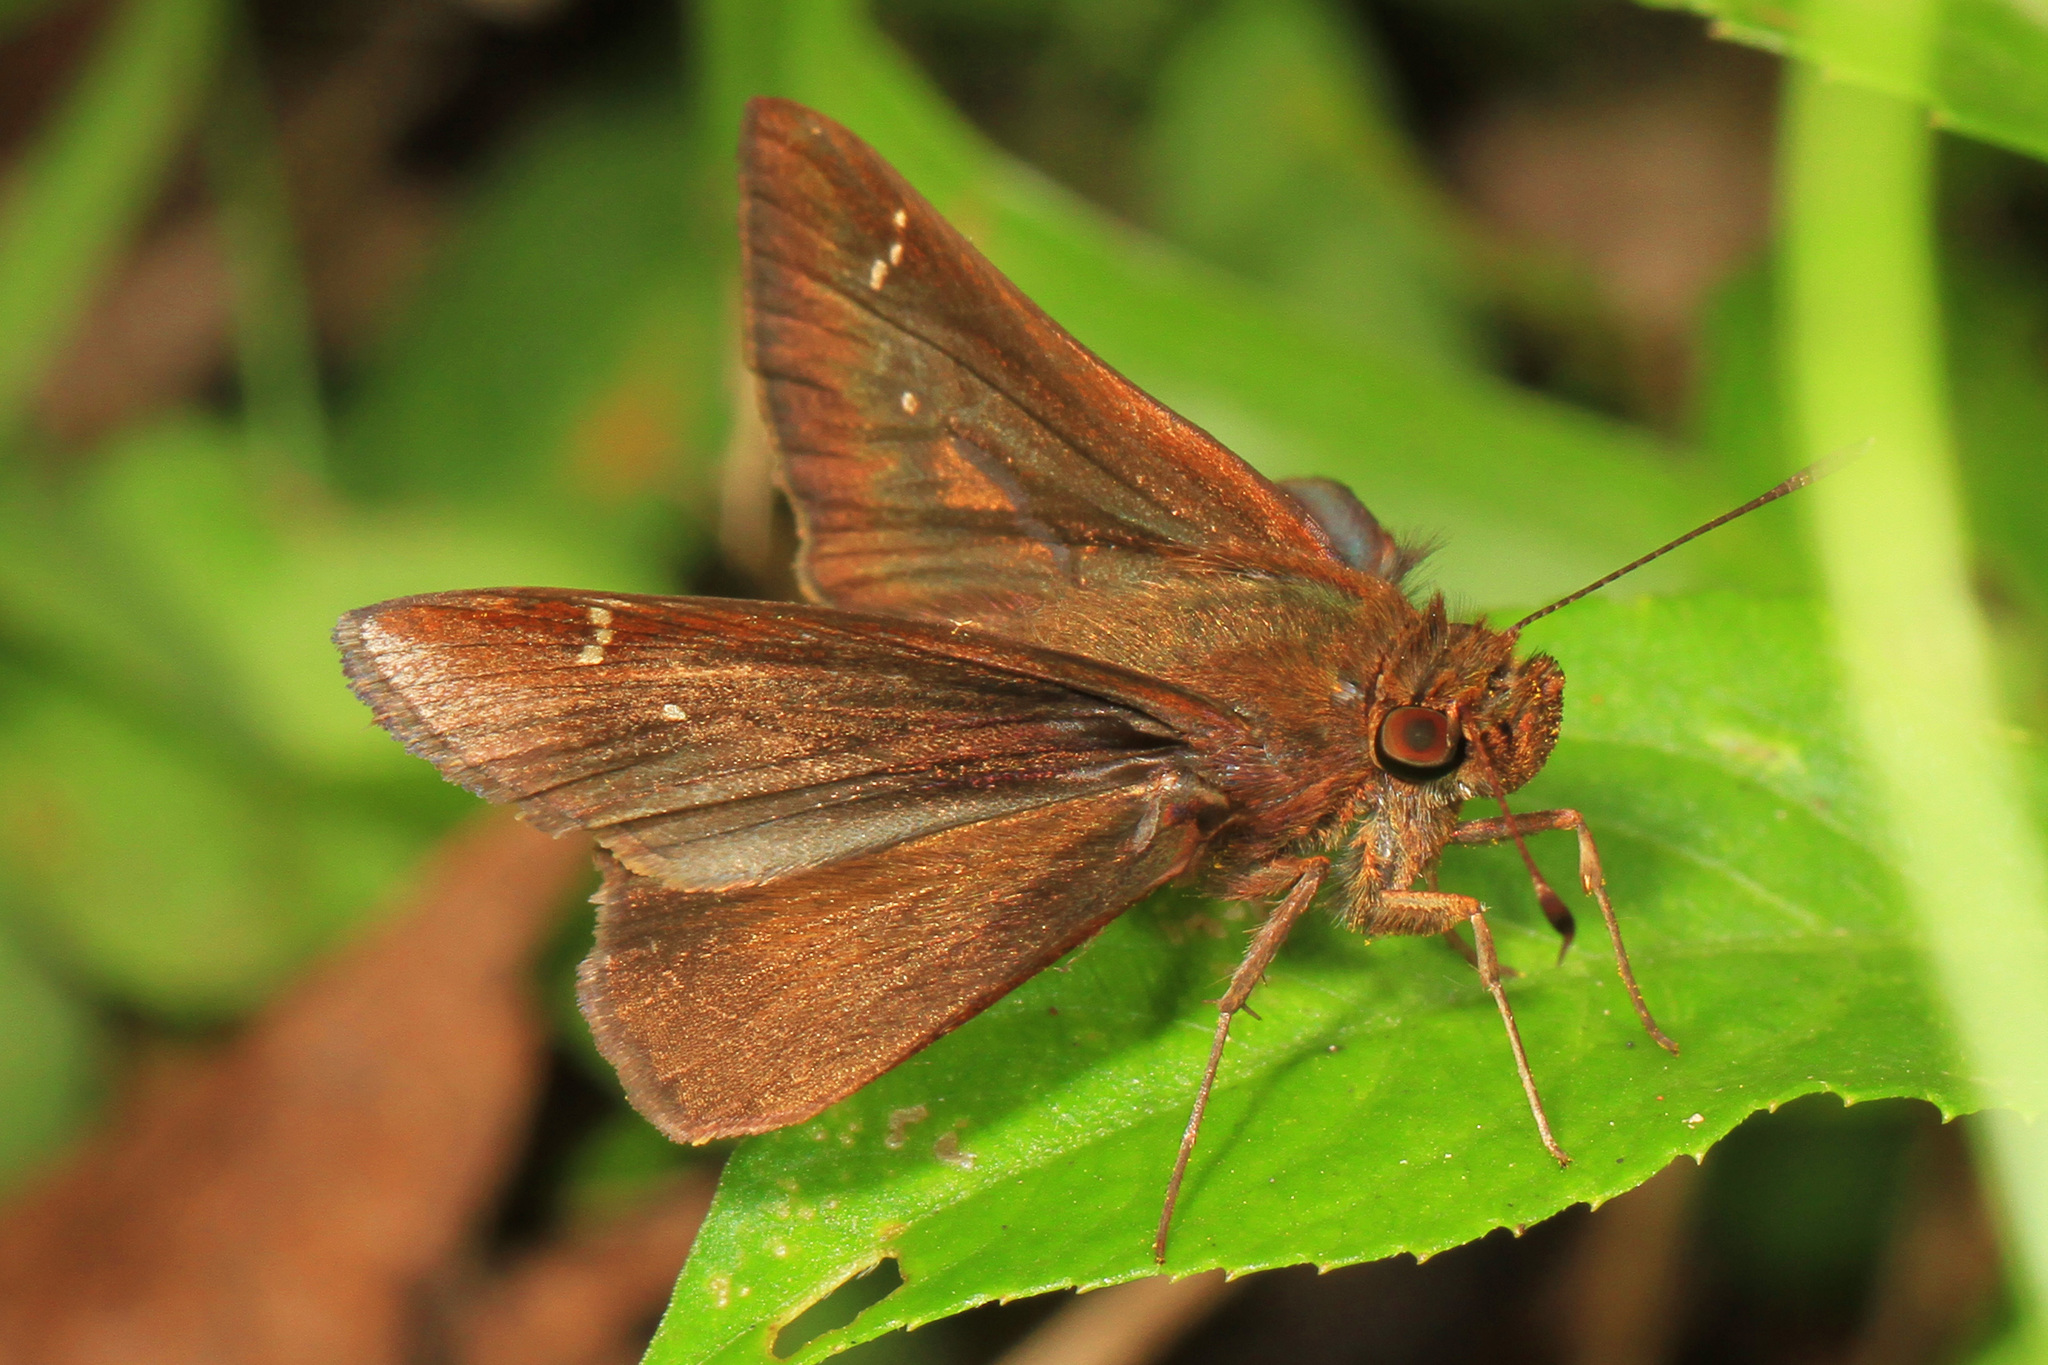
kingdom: Animalia
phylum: Arthropoda
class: Insecta
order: Lepidoptera
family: Hesperiidae
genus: Lerema
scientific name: Lerema accius
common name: Clouded skipper
